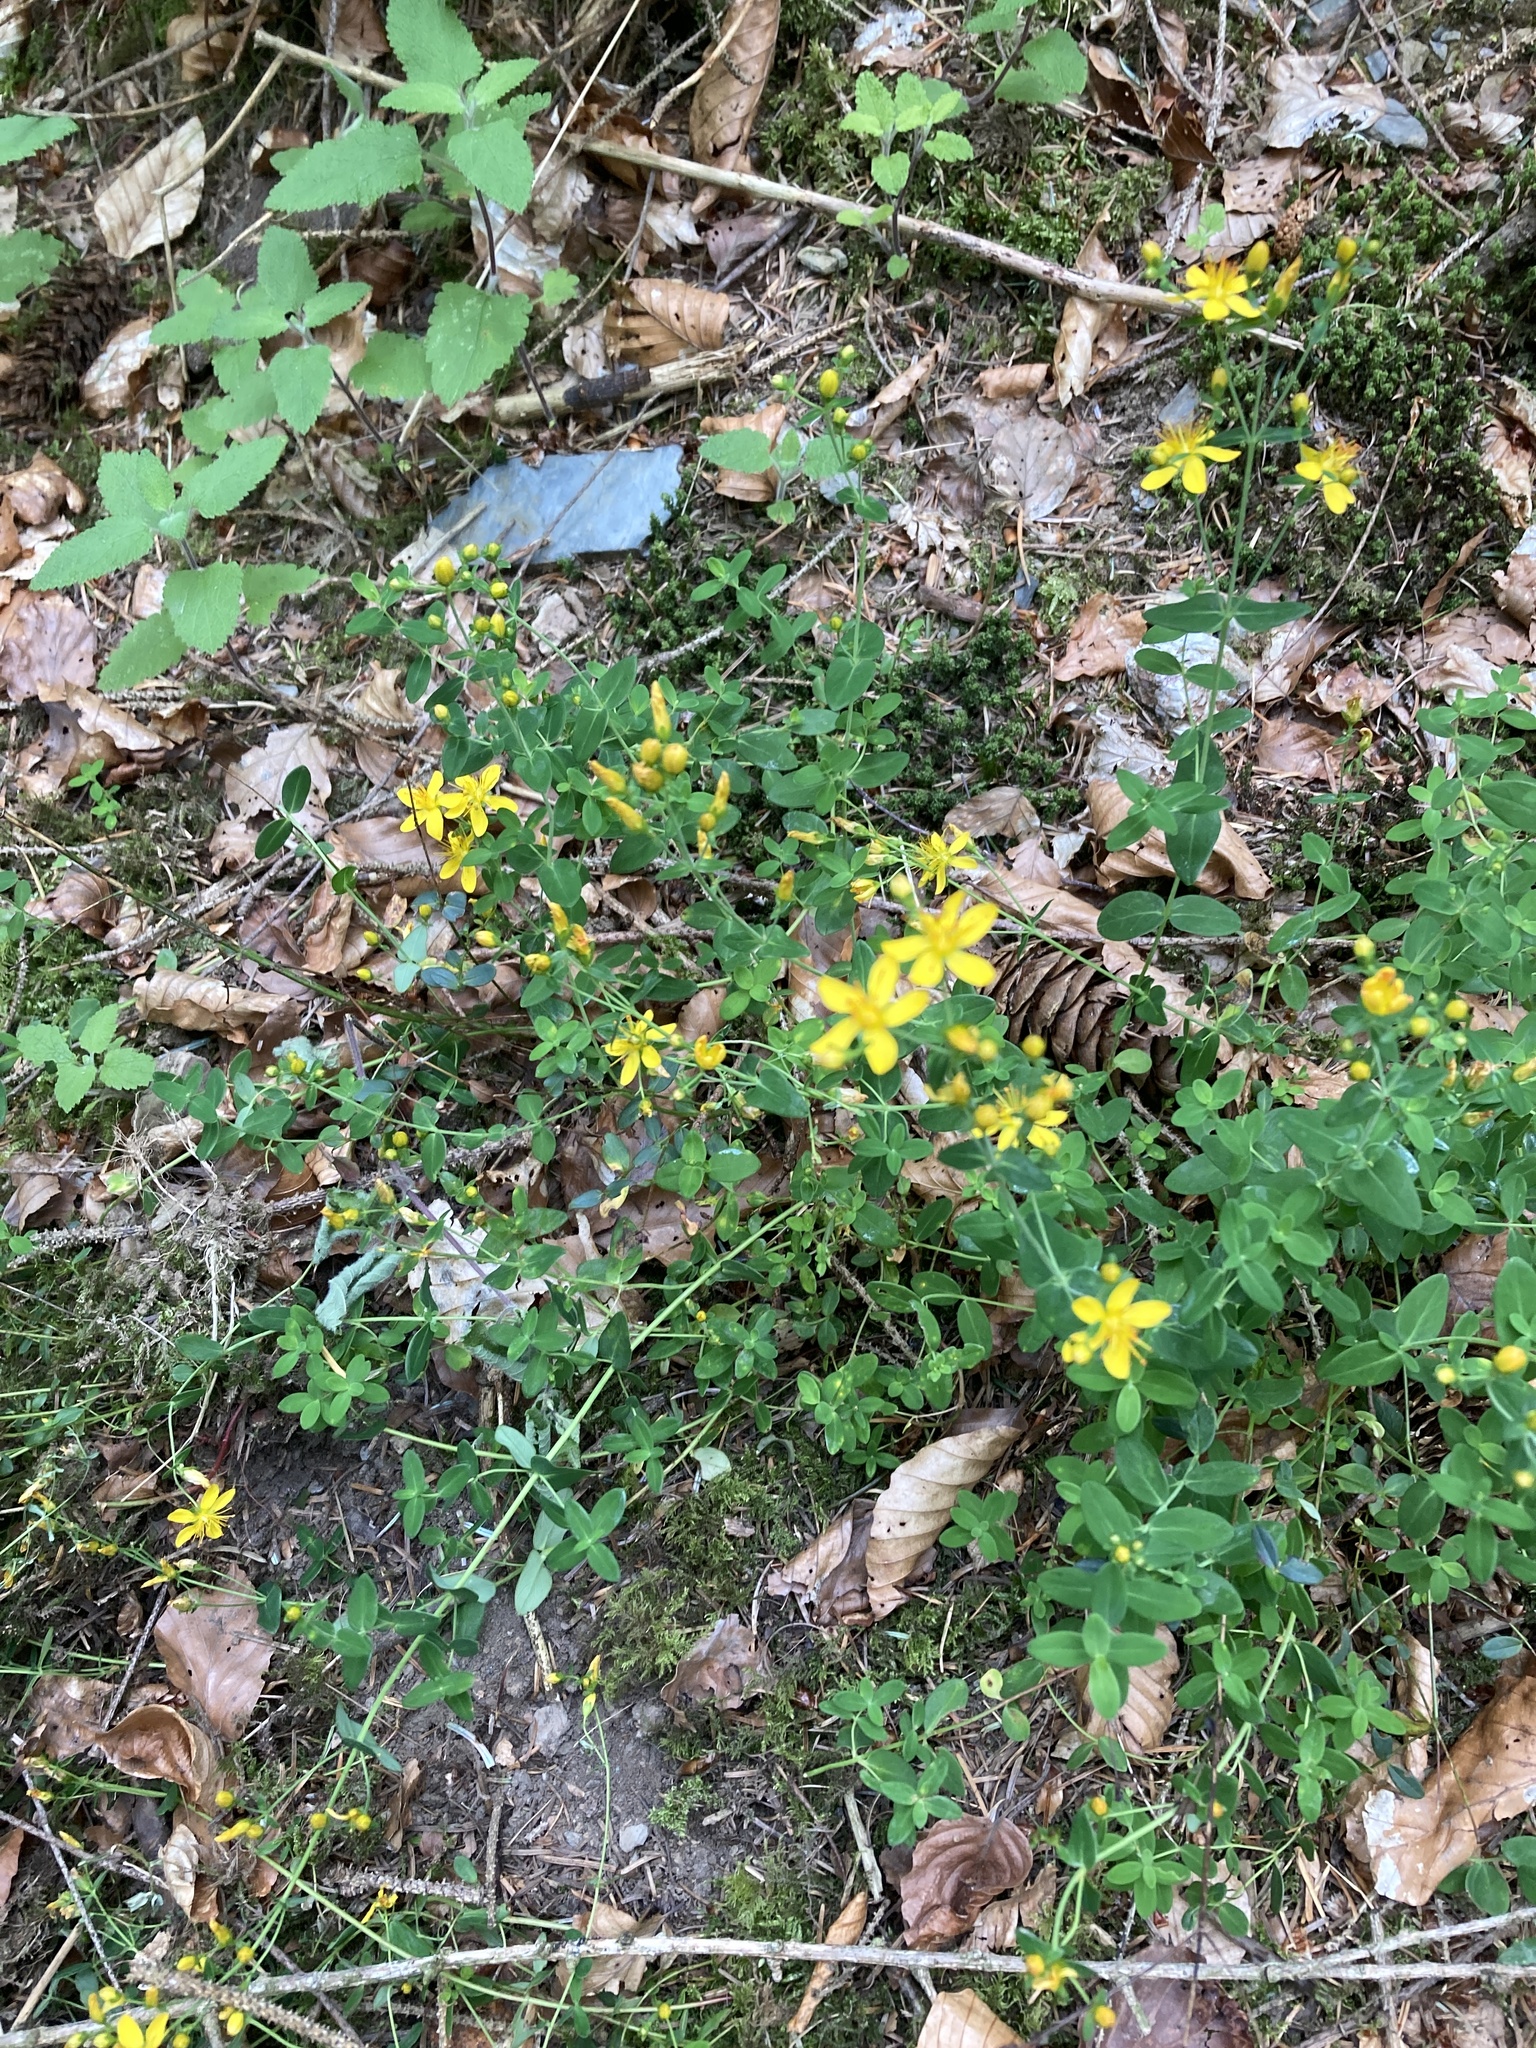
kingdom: Plantae
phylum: Tracheophyta
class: Magnoliopsida
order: Malpighiales
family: Hypericaceae
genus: Hypericum
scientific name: Hypericum pulchrum
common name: Slender st. john's-wort
